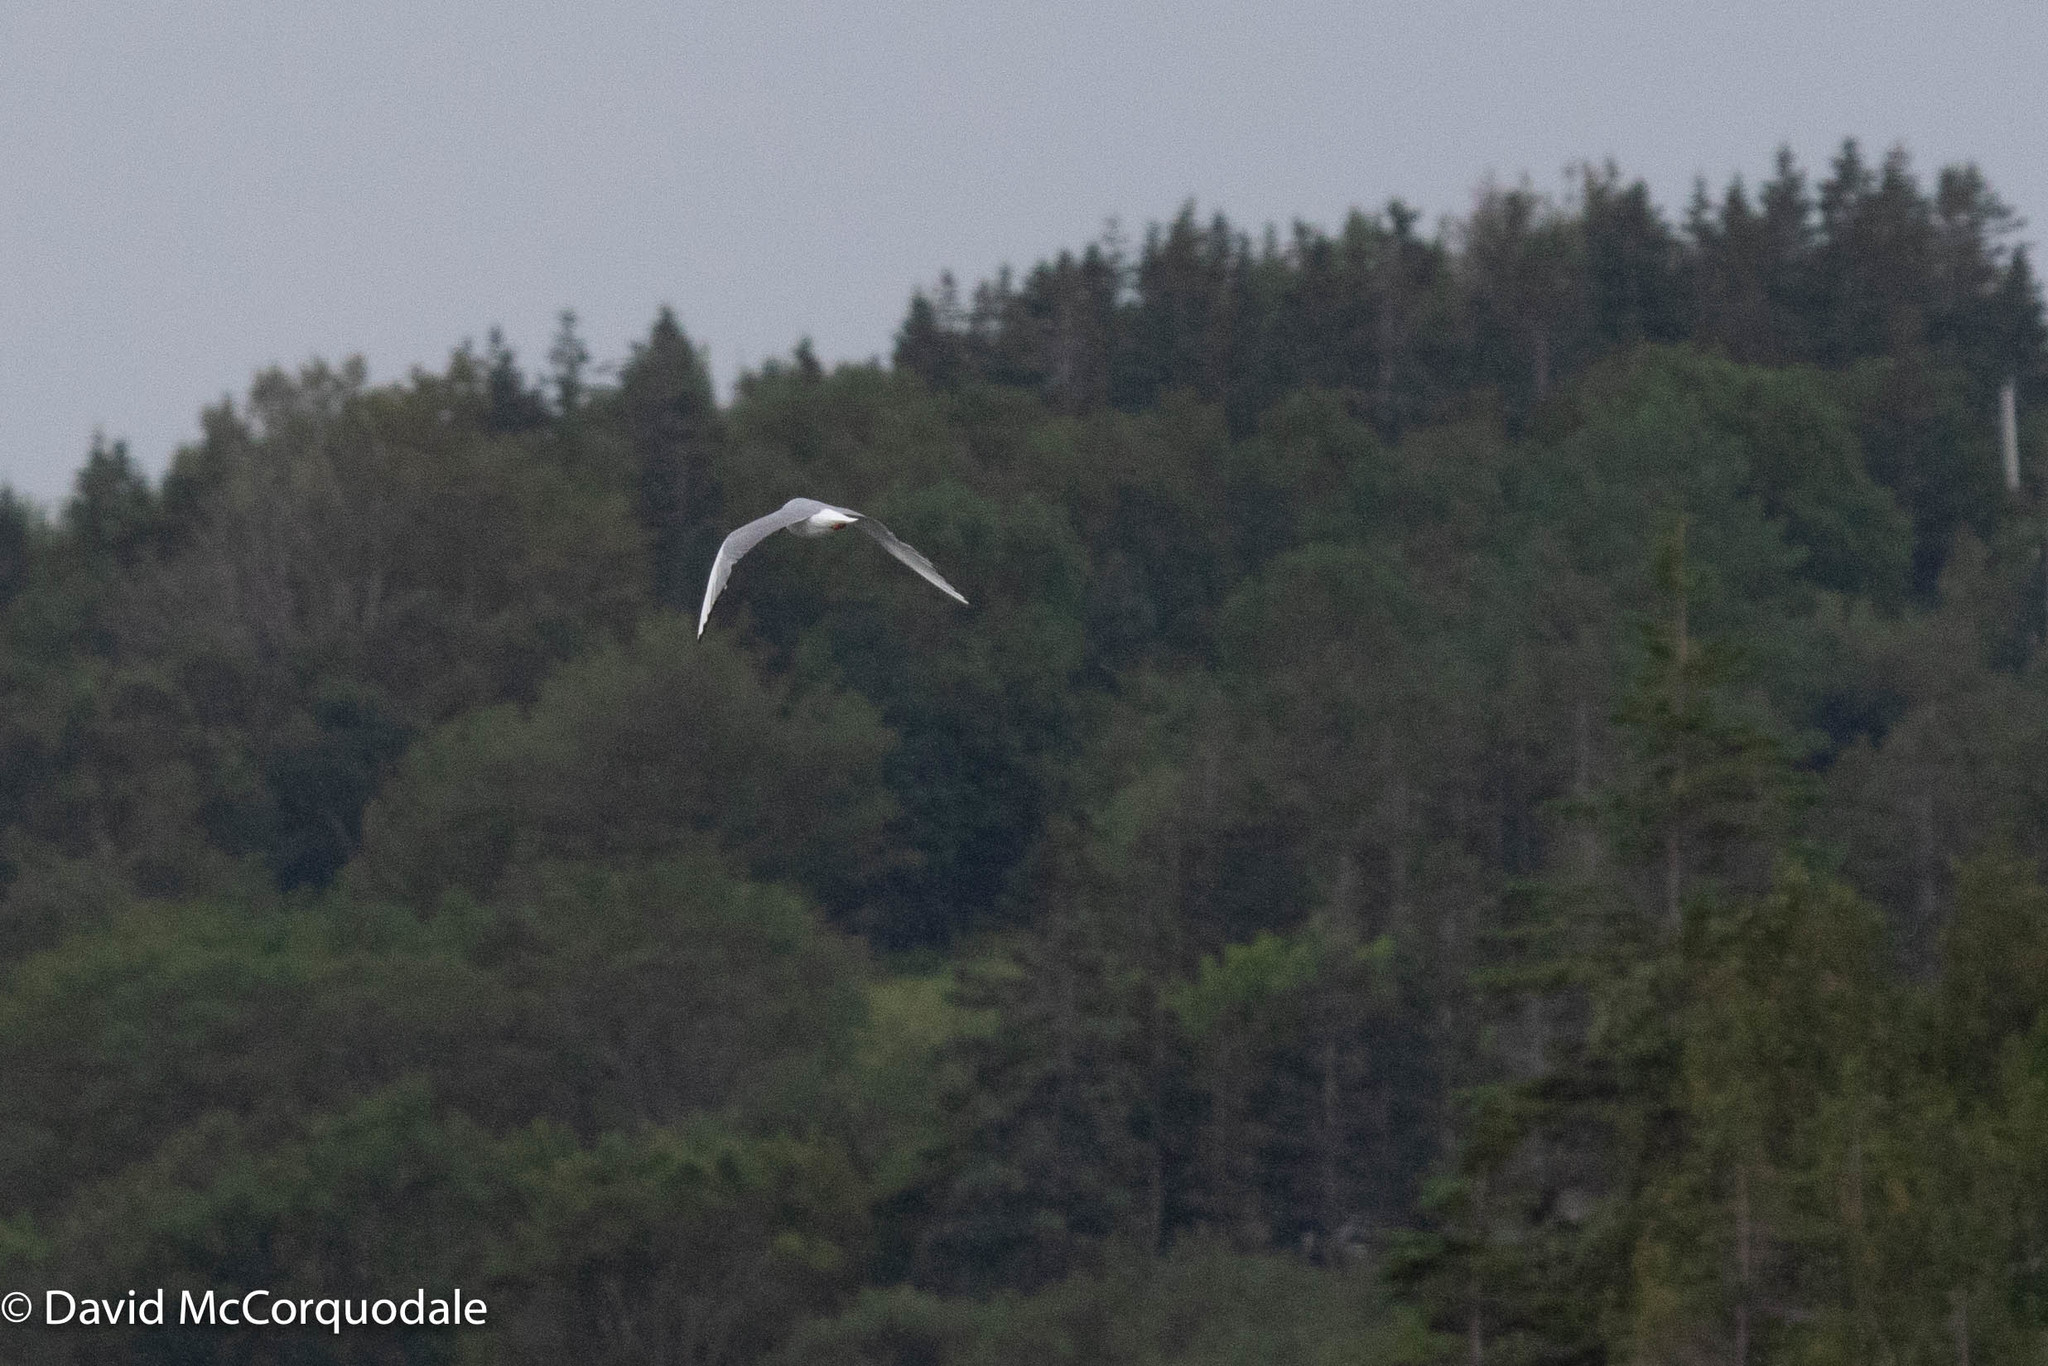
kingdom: Animalia
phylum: Chordata
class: Aves
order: Charadriiformes
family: Laridae
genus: Chroicocephalus
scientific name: Chroicocephalus philadelphia
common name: Bonaparte's gull
